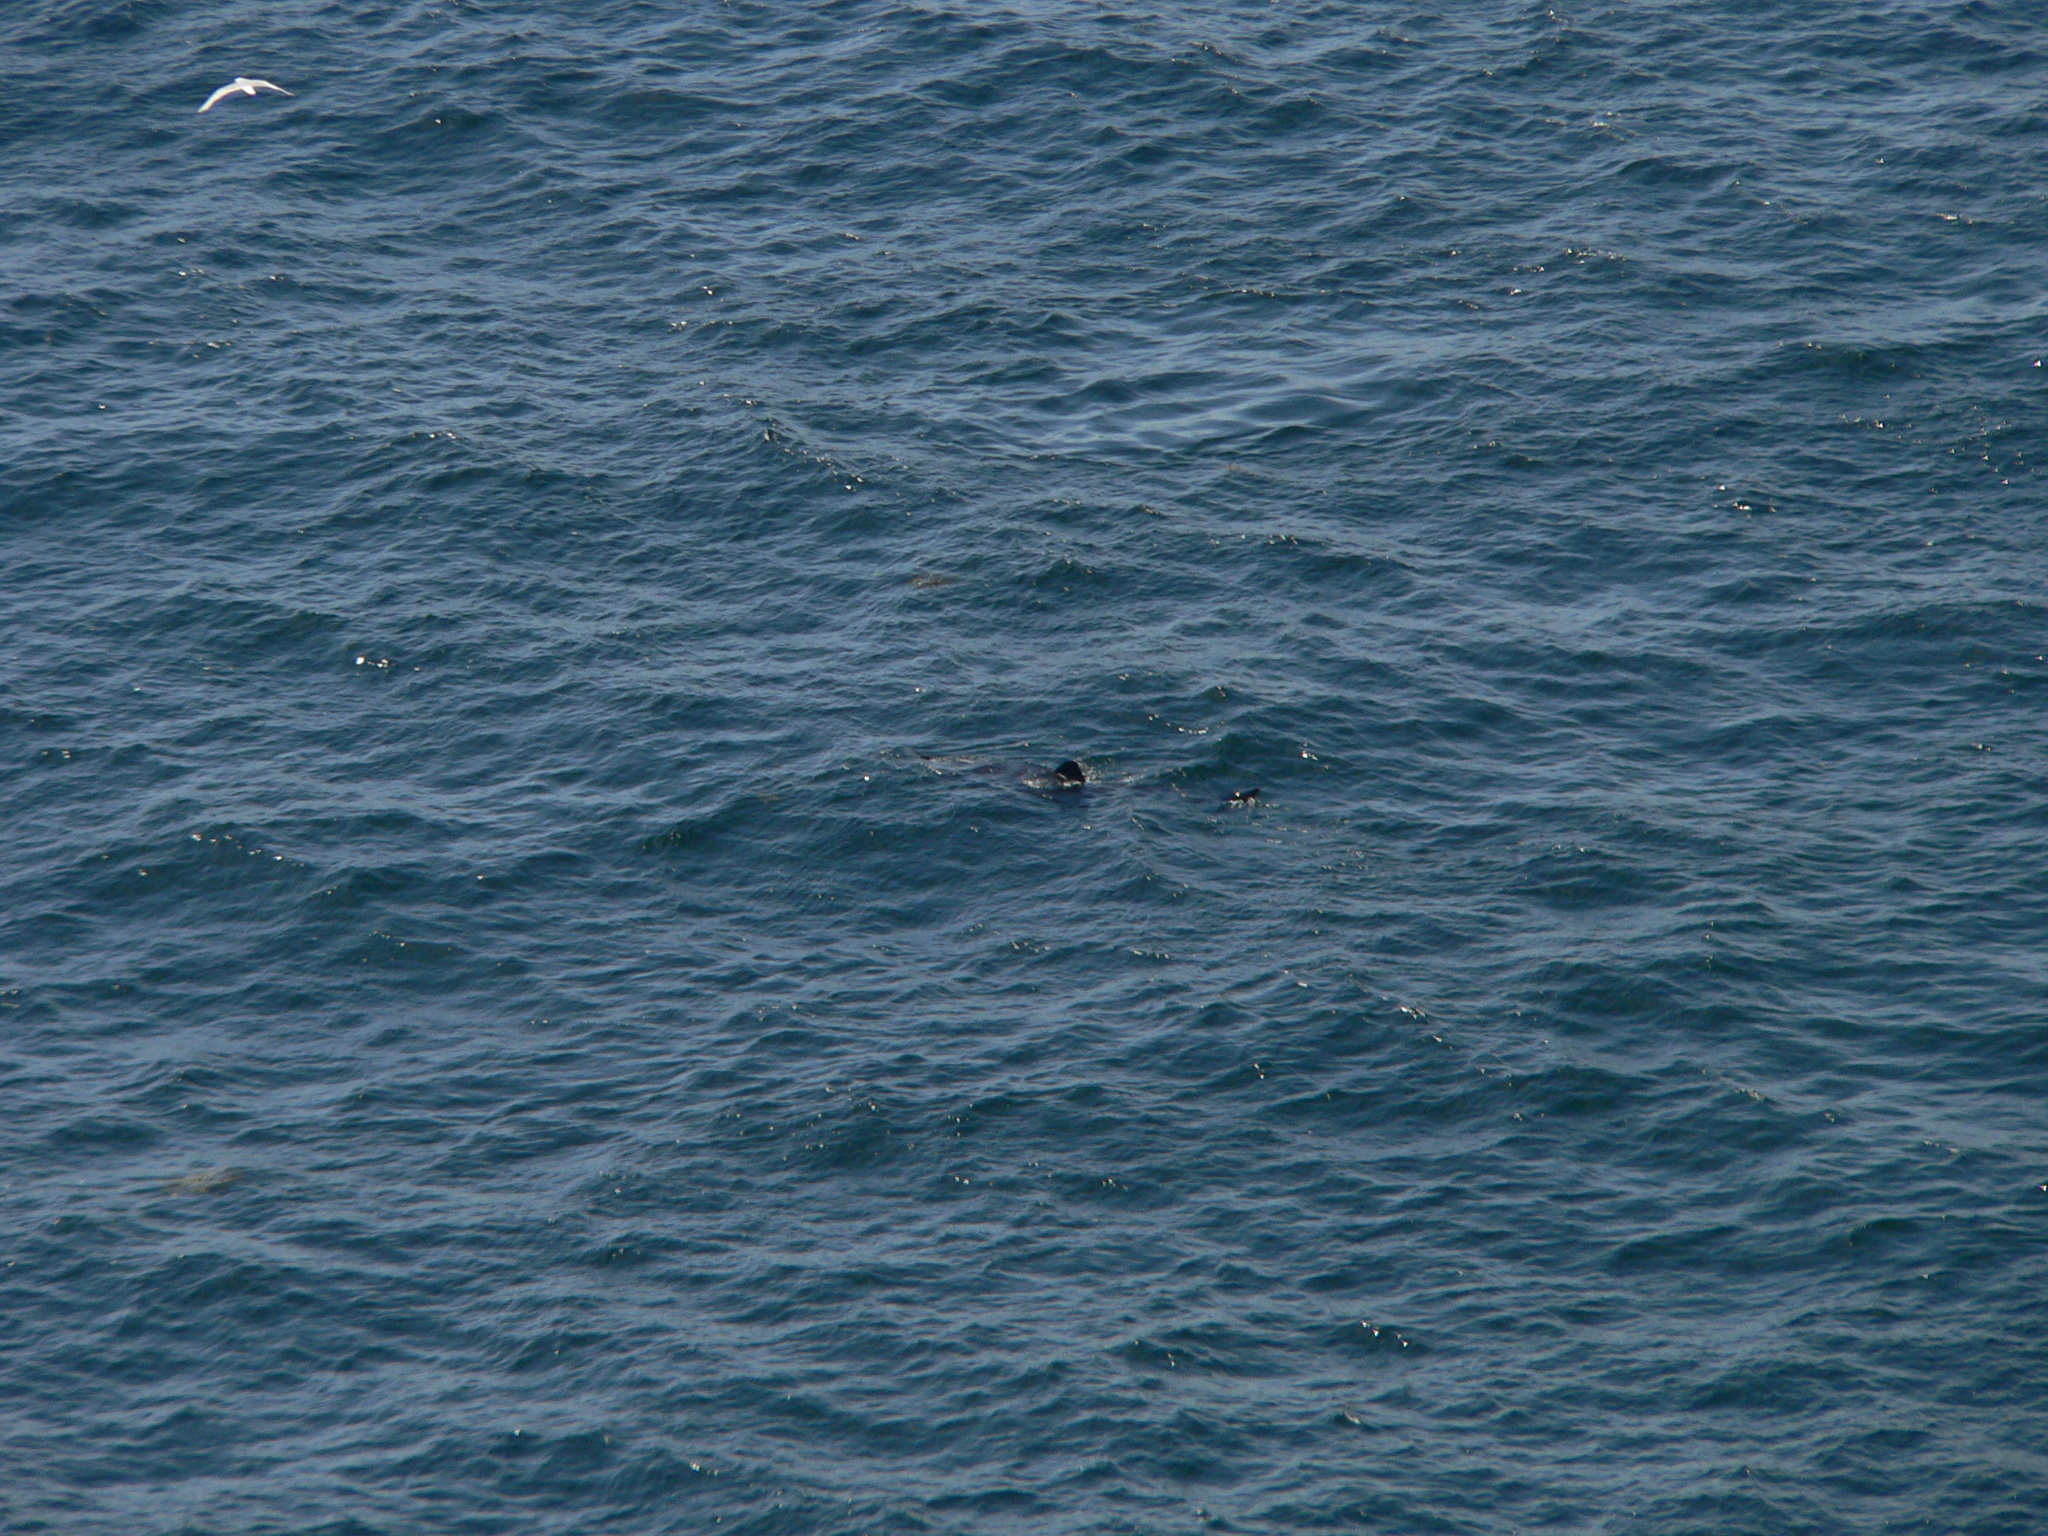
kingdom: Animalia
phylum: Chordata
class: Elasmobranchii
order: Lamniformes
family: Cetorhinidae
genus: Cetorhinus
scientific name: Cetorhinus maximus
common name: Basking shark
